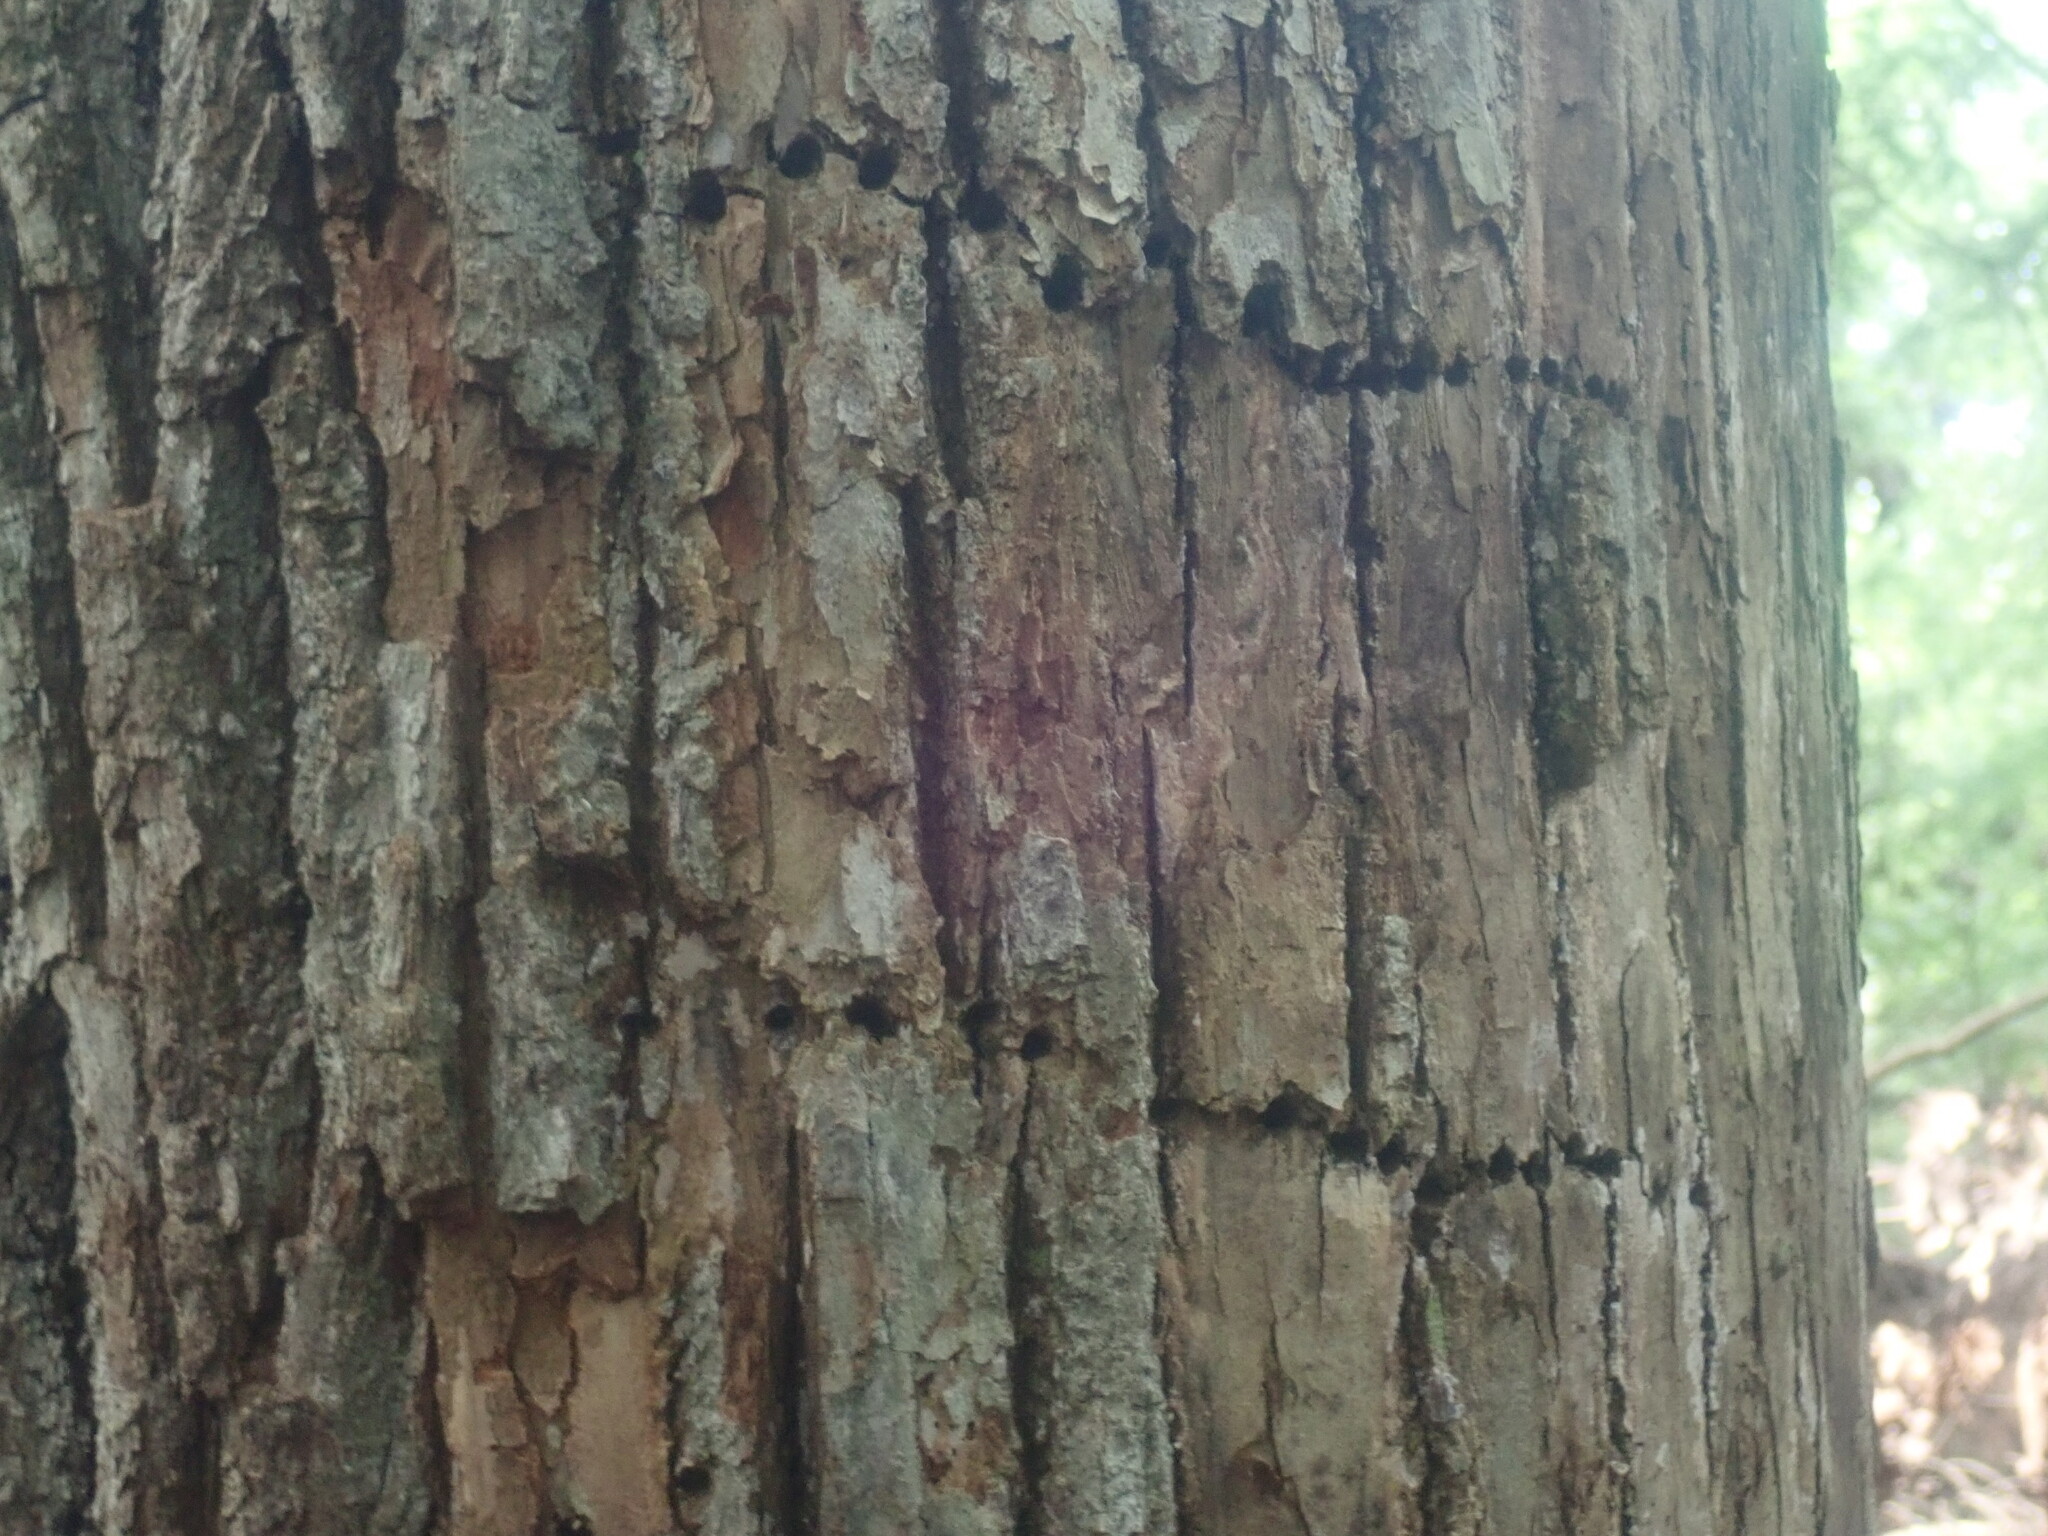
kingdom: Animalia
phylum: Chordata
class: Aves
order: Piciformes
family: Picidae
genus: Sphyrapicus
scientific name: Sphyrapicus varius
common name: Yellow-bellied sapsucker
